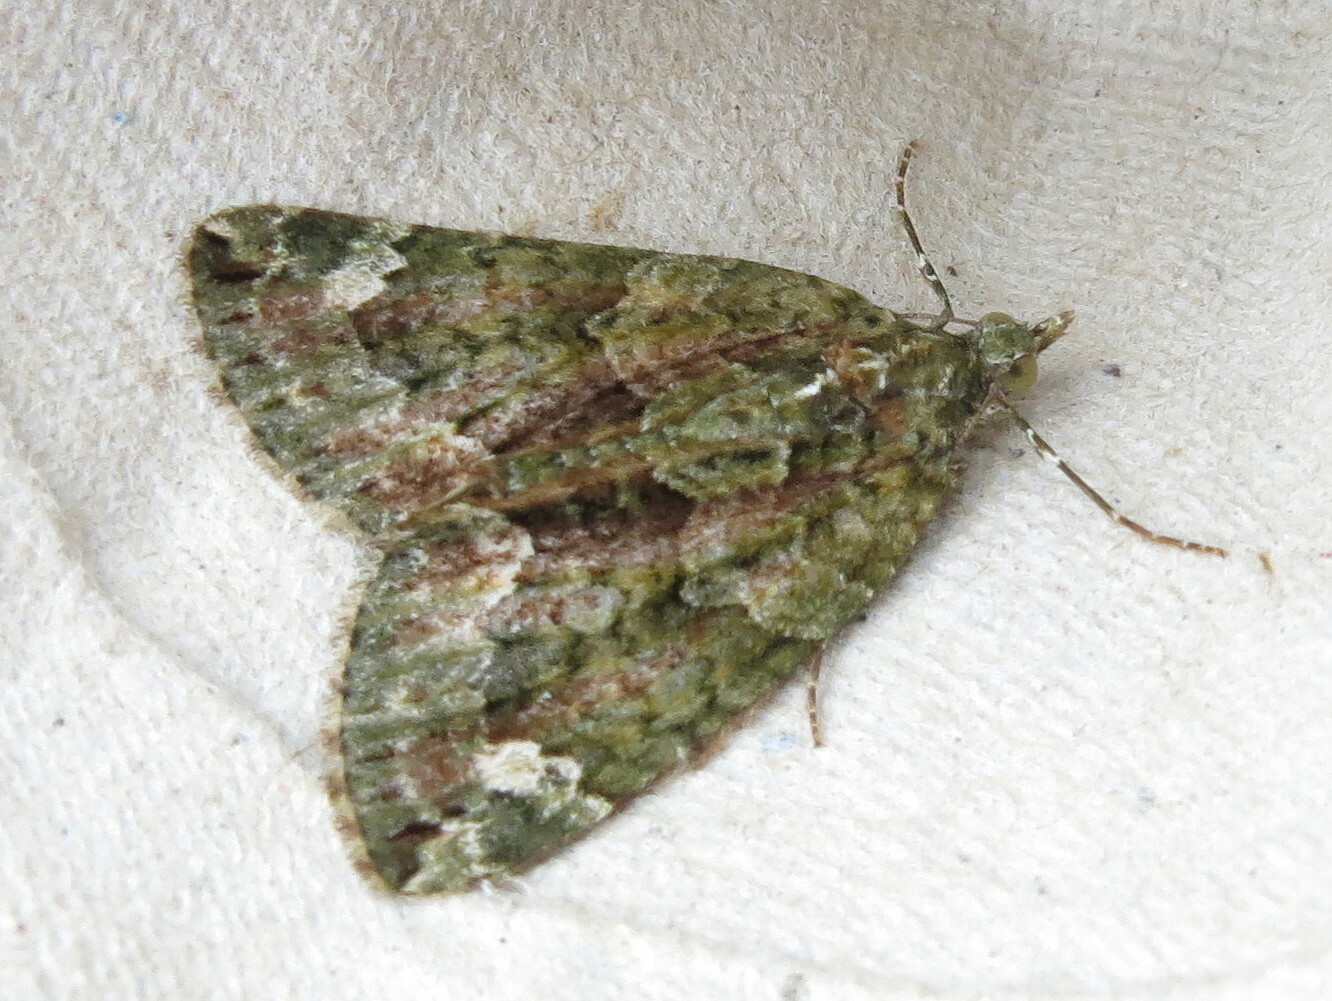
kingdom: Animalia
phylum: Arthropoda
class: Insecta
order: Lepidoptera
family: Geometridae
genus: Chloroclysta
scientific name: Chloroclysta siterata
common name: Red-green carpet
